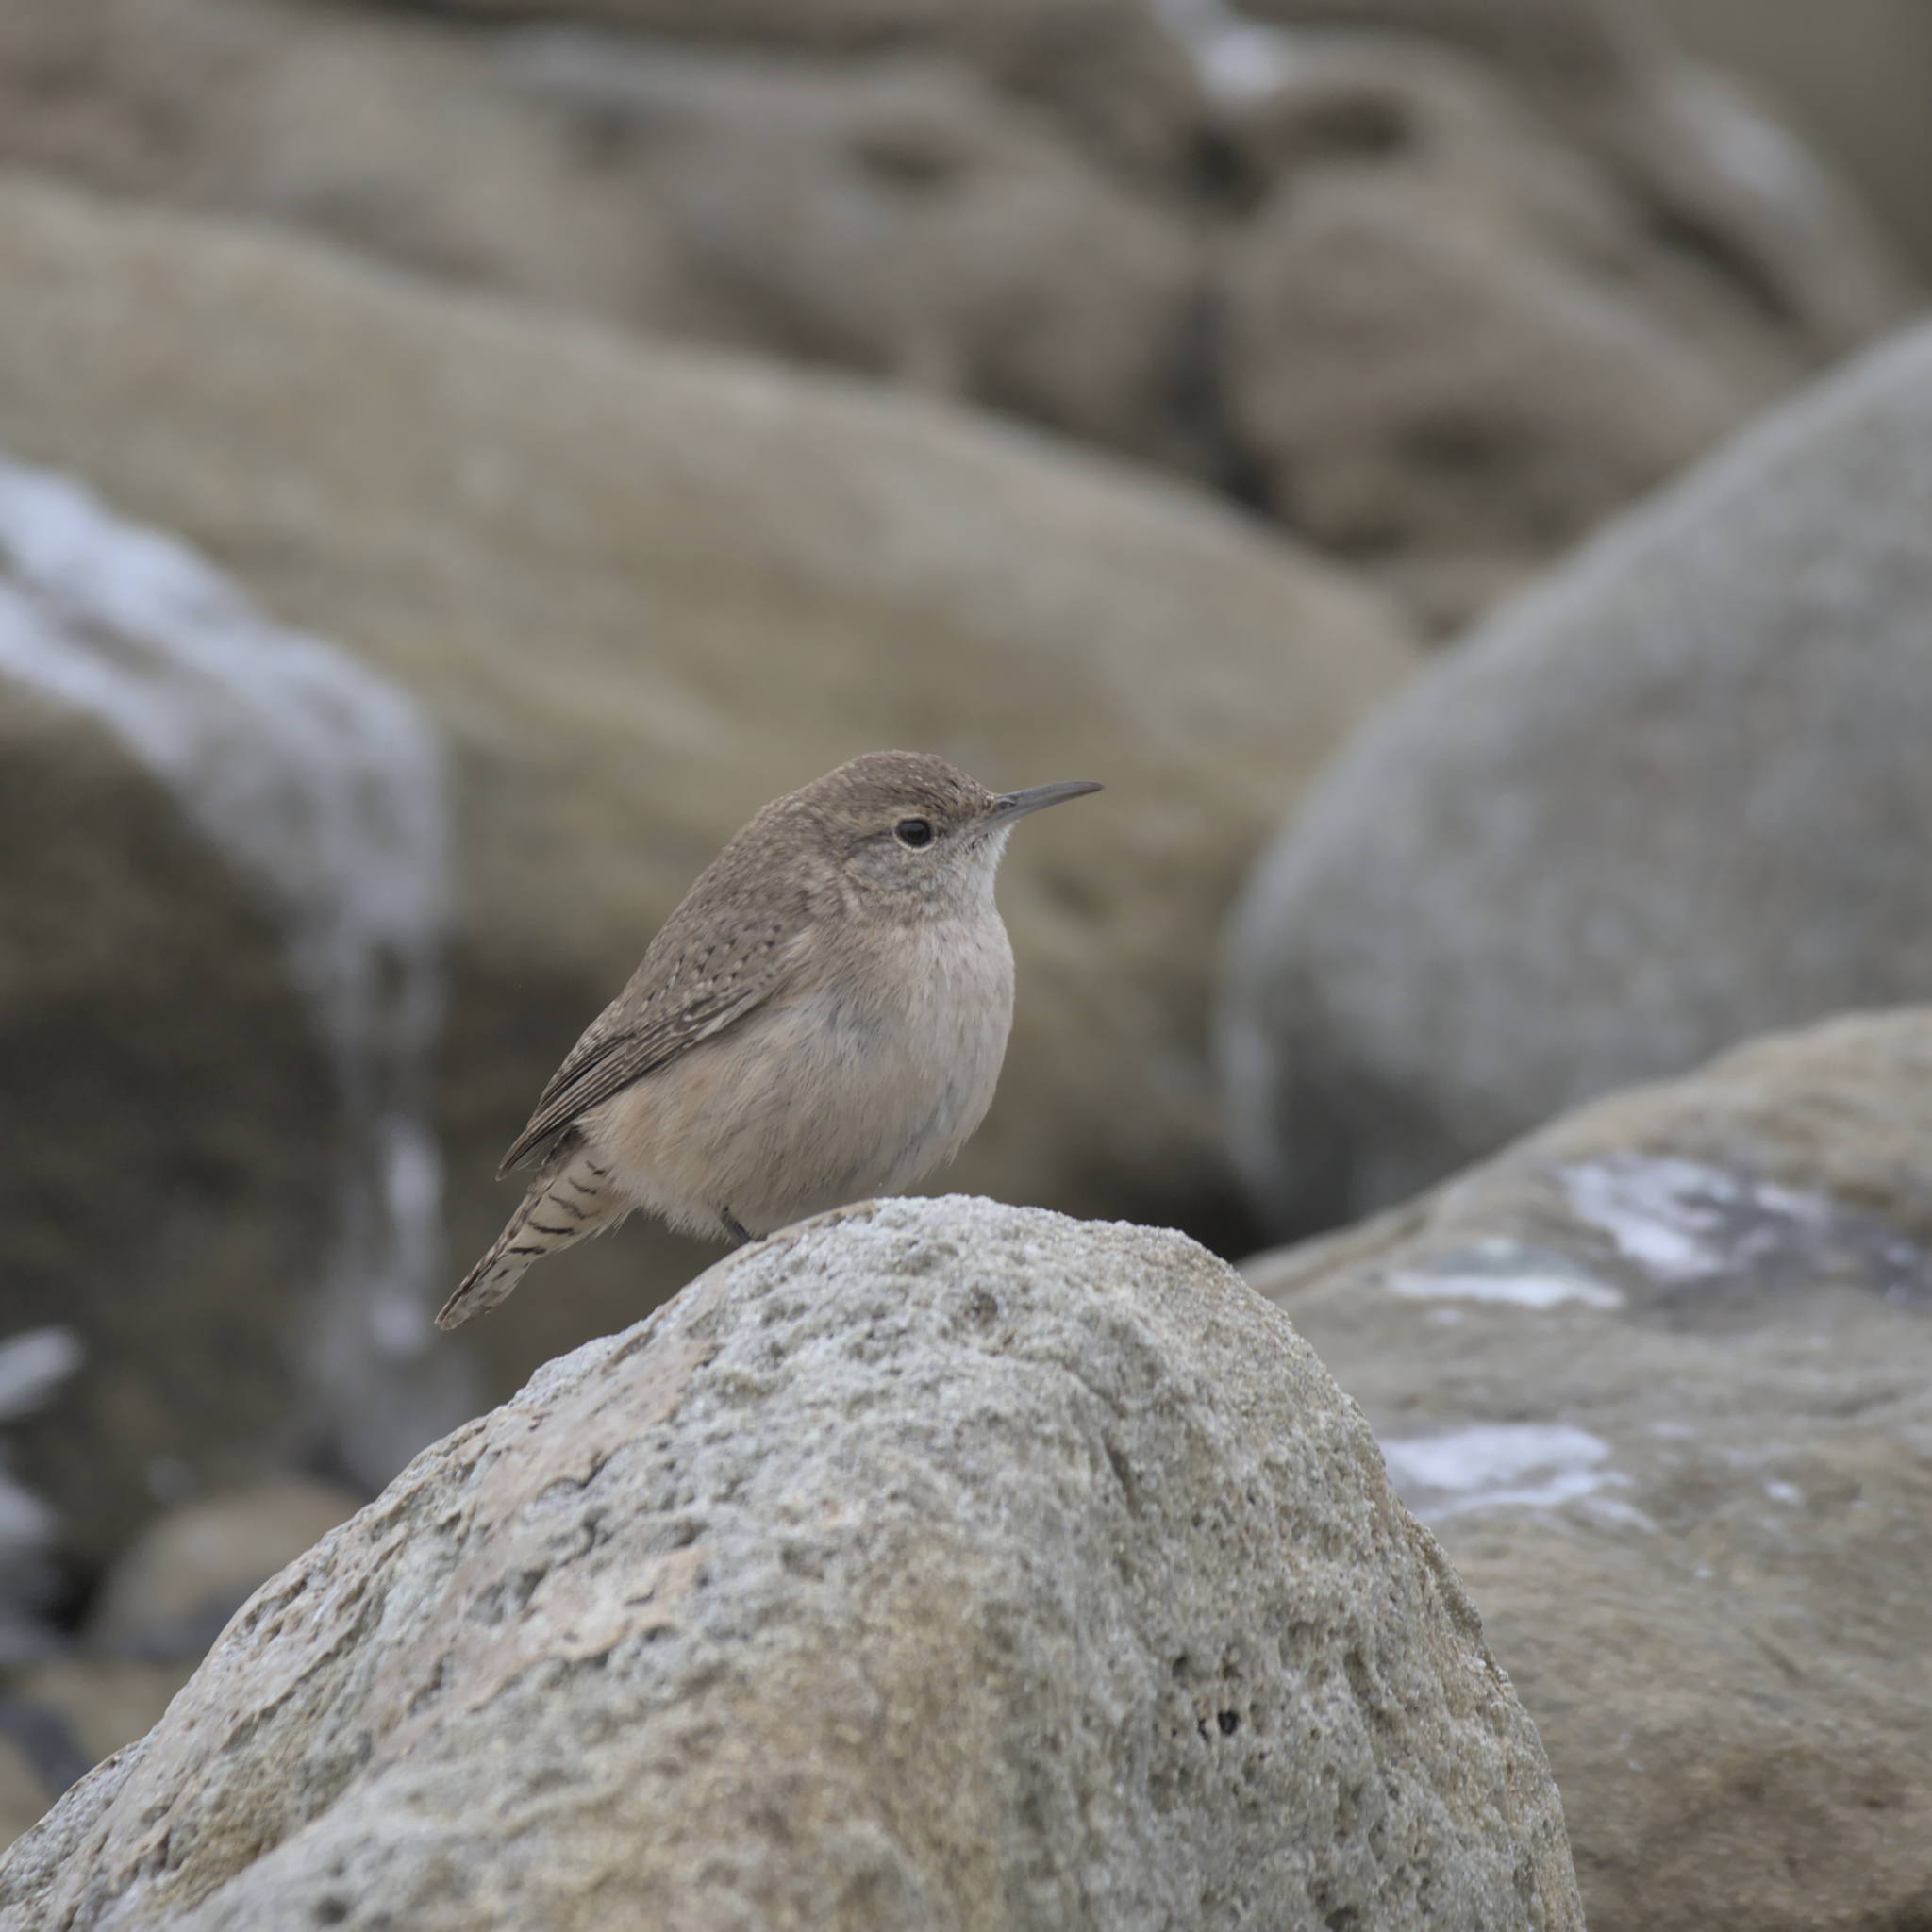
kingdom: Animalia
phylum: Chordata
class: Aves
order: Passeriformes
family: Troglodytidae
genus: Salpinctes
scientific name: Salpinctes obsoletus
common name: Rock wren
